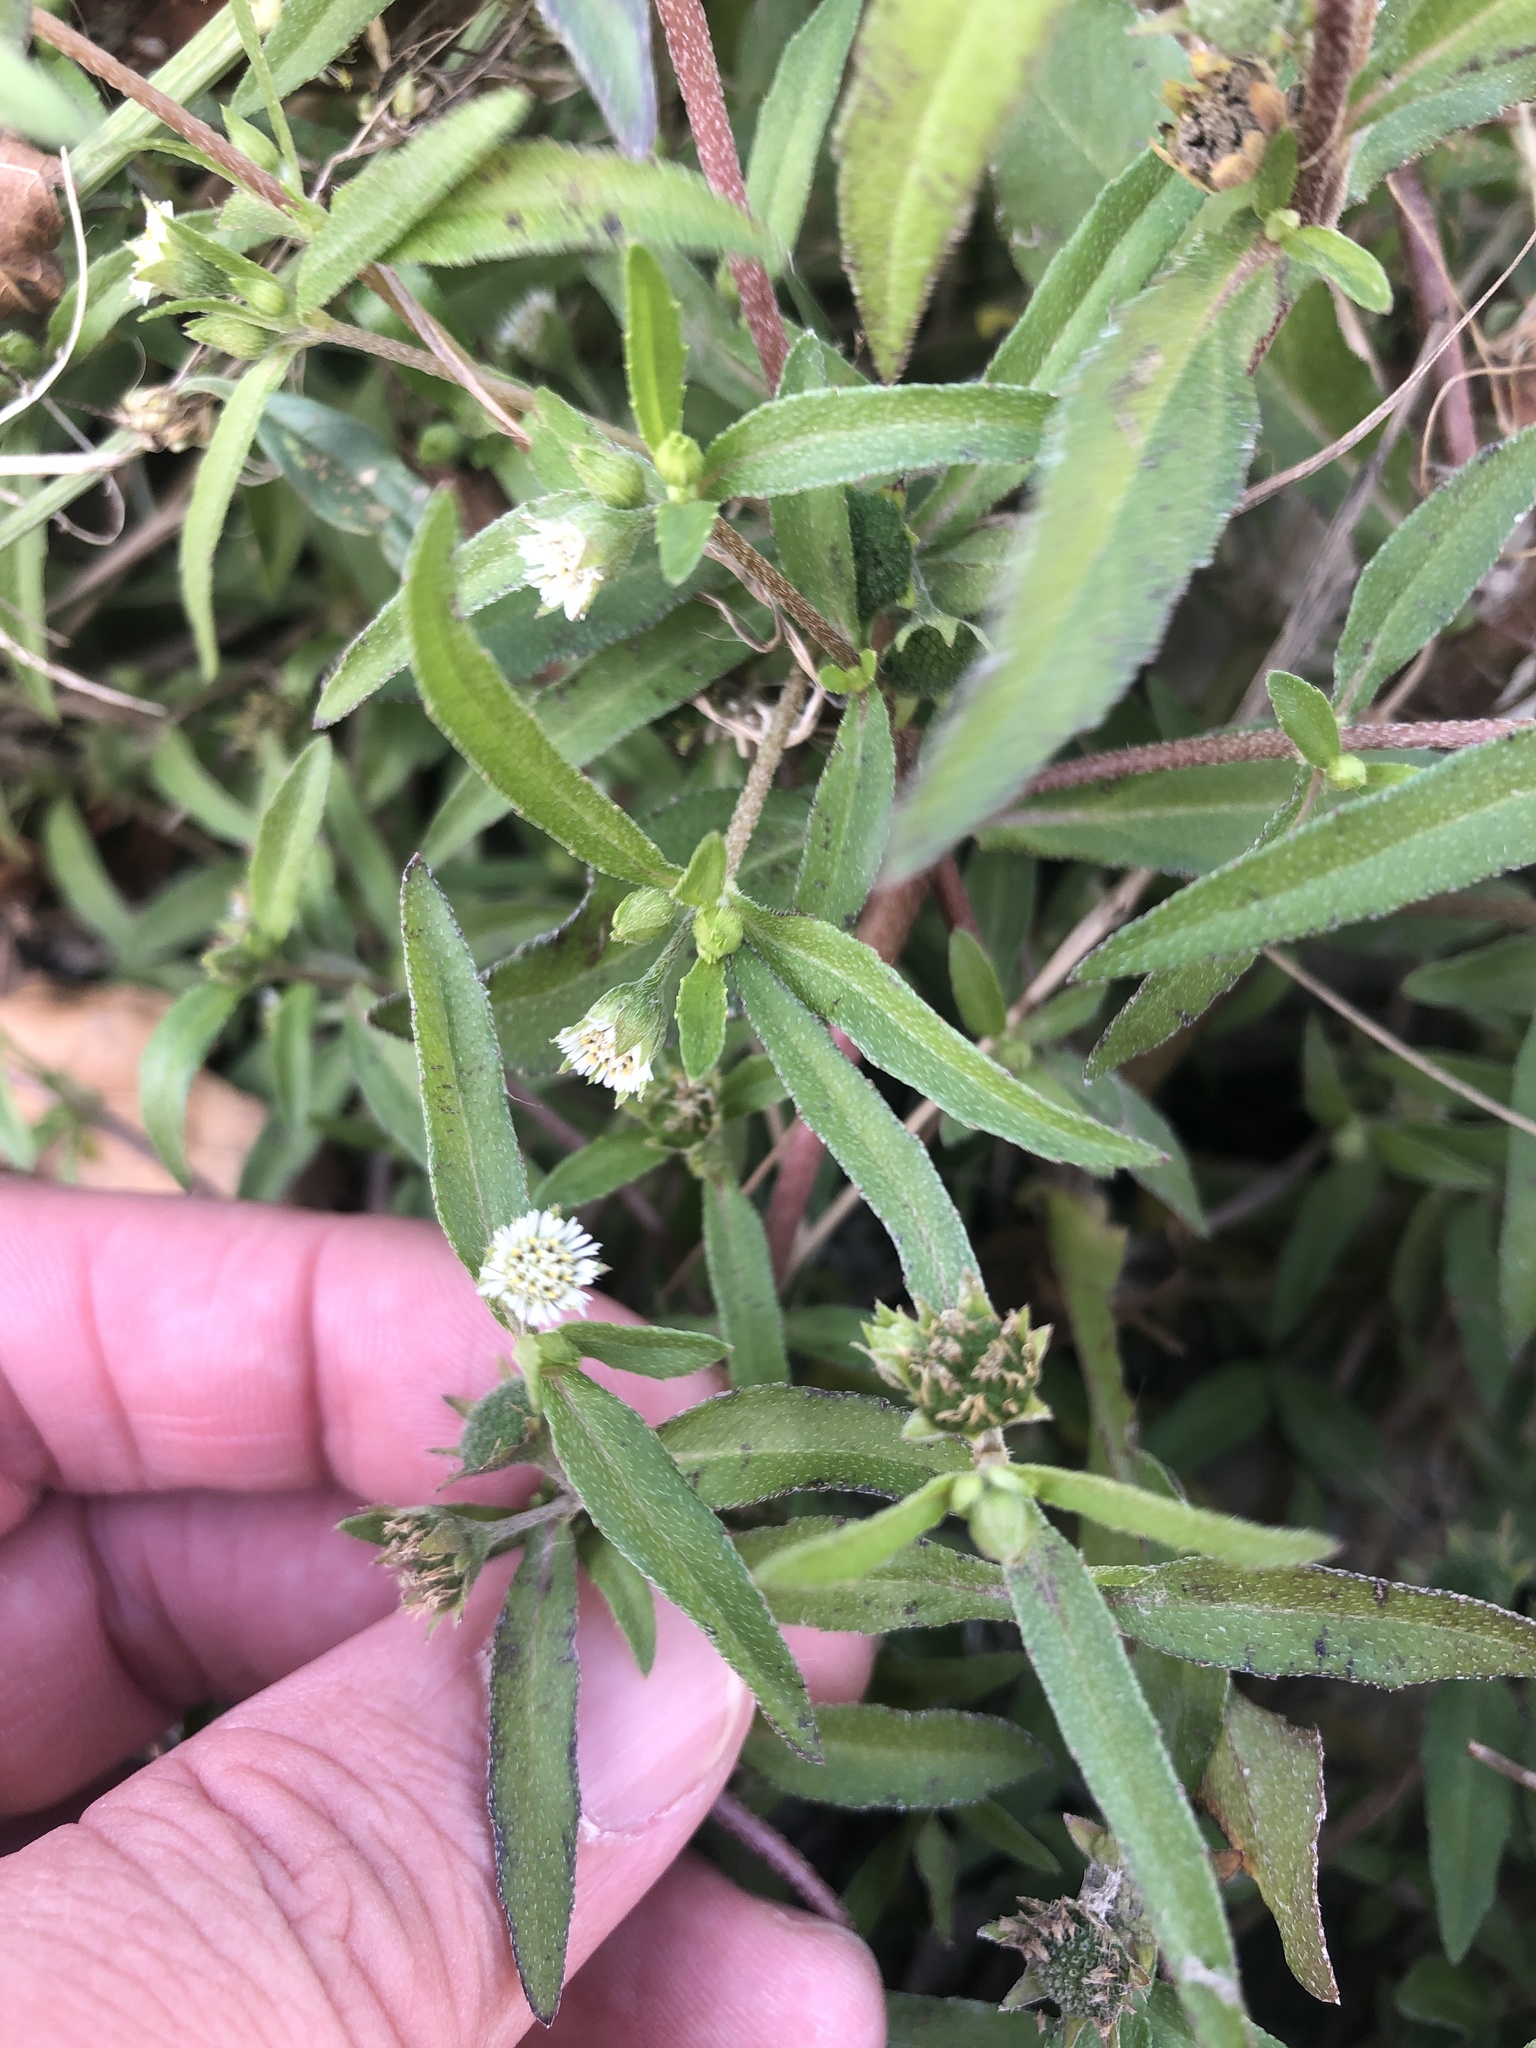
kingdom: Plantae
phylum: Tracheophyta
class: Magnoliopsida
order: Asterales
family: Asteraceae
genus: Eclipta
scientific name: Eclipta prostrata
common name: False daisy
